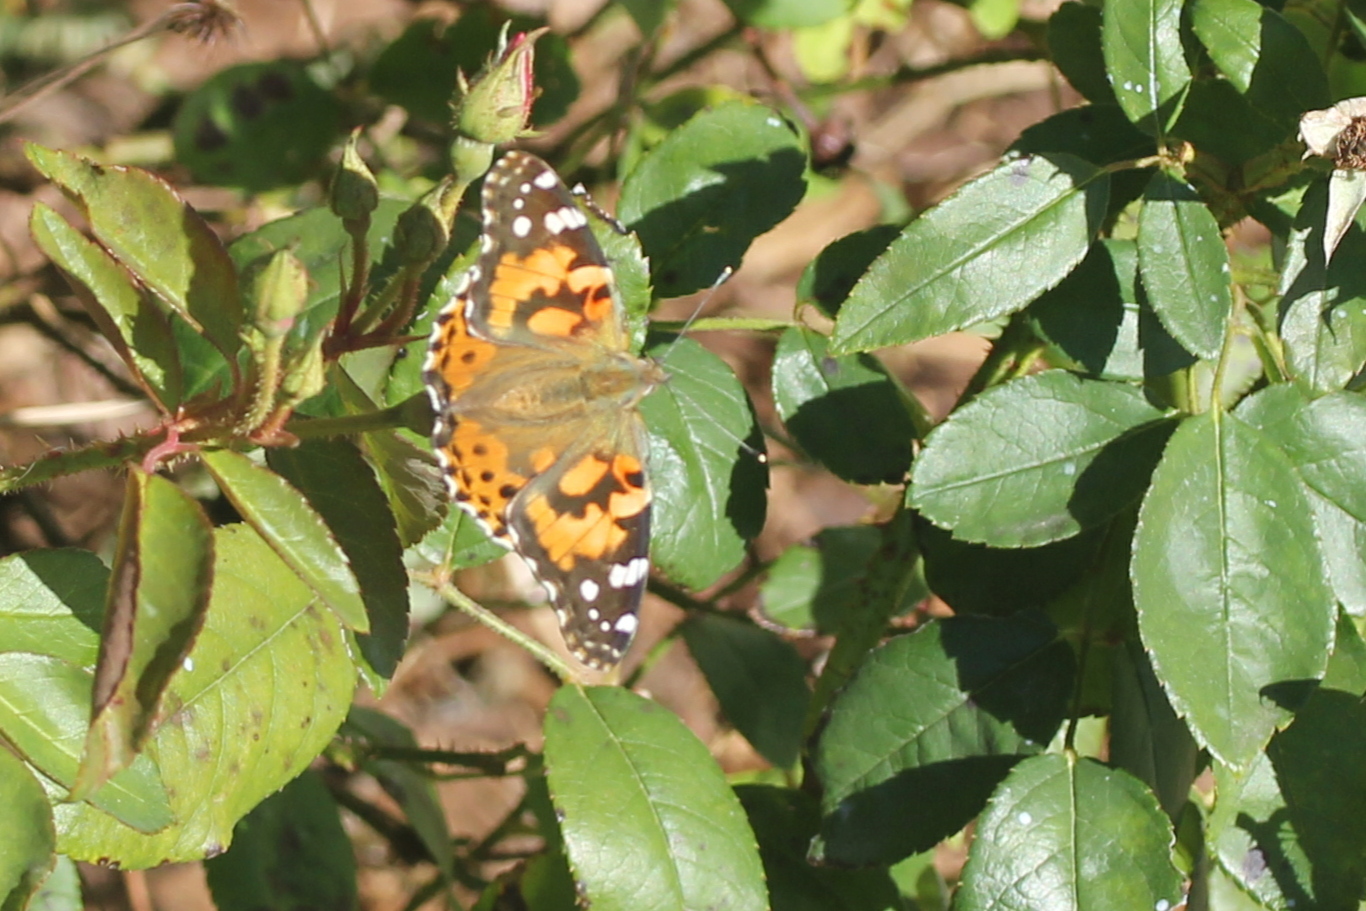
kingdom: Animalia
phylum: Arthropoda
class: Insecta
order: Lepidoptera
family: Nymphalidae
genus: Vanessa
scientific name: Vanessa cardui
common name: Painted lady
